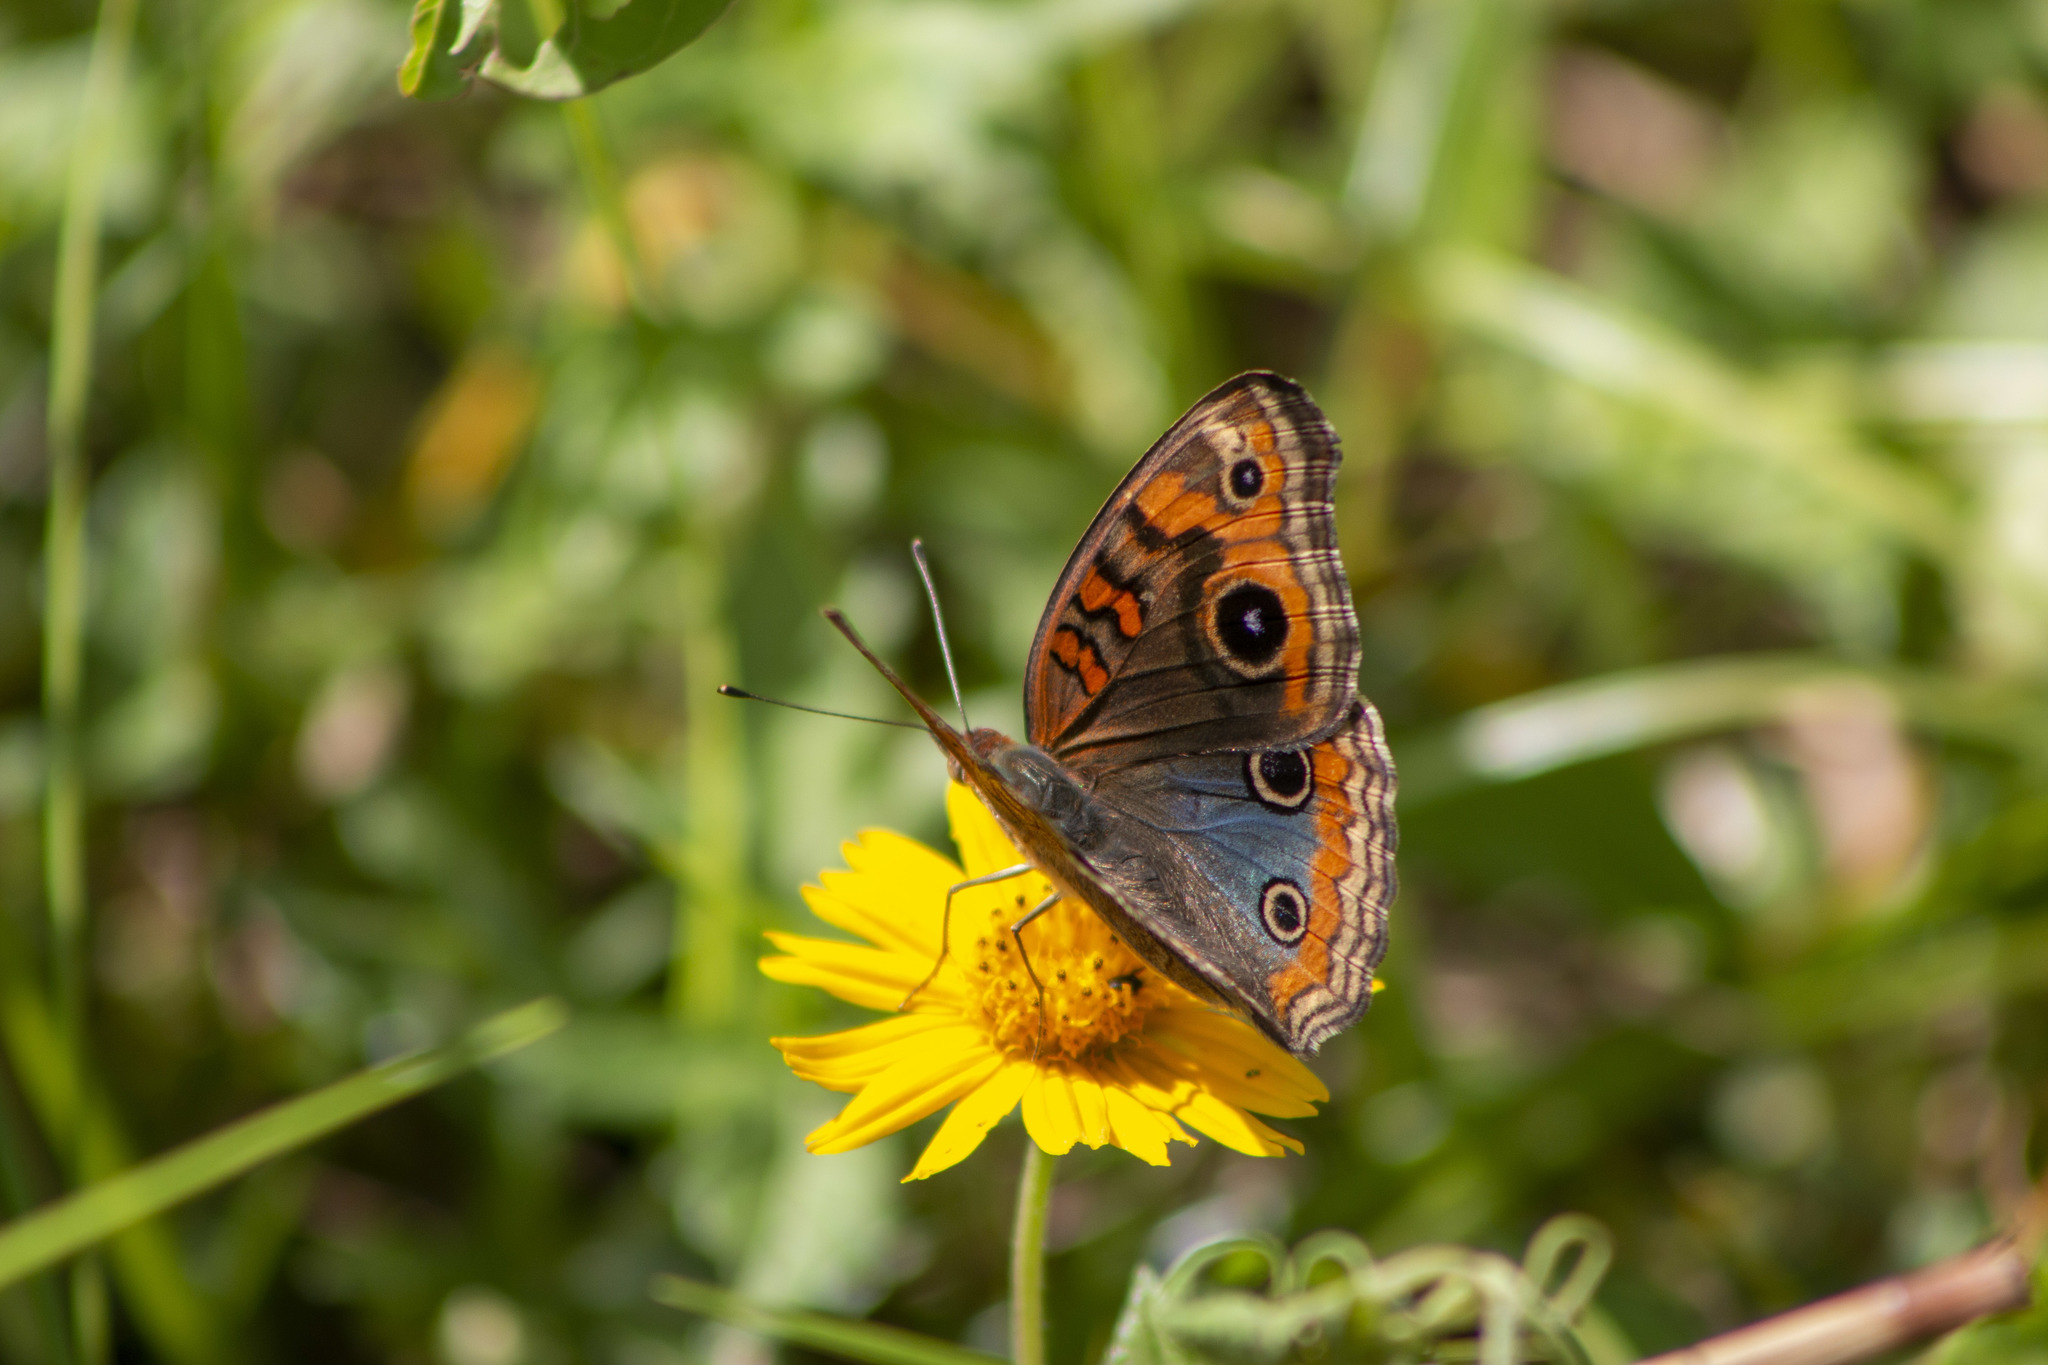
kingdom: Animalia
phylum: Arthropoda
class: Insecta
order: Lepidoptera
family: Nymphalidae
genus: Junonia
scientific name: Junonia evarete
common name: Black mangrove buckeye
